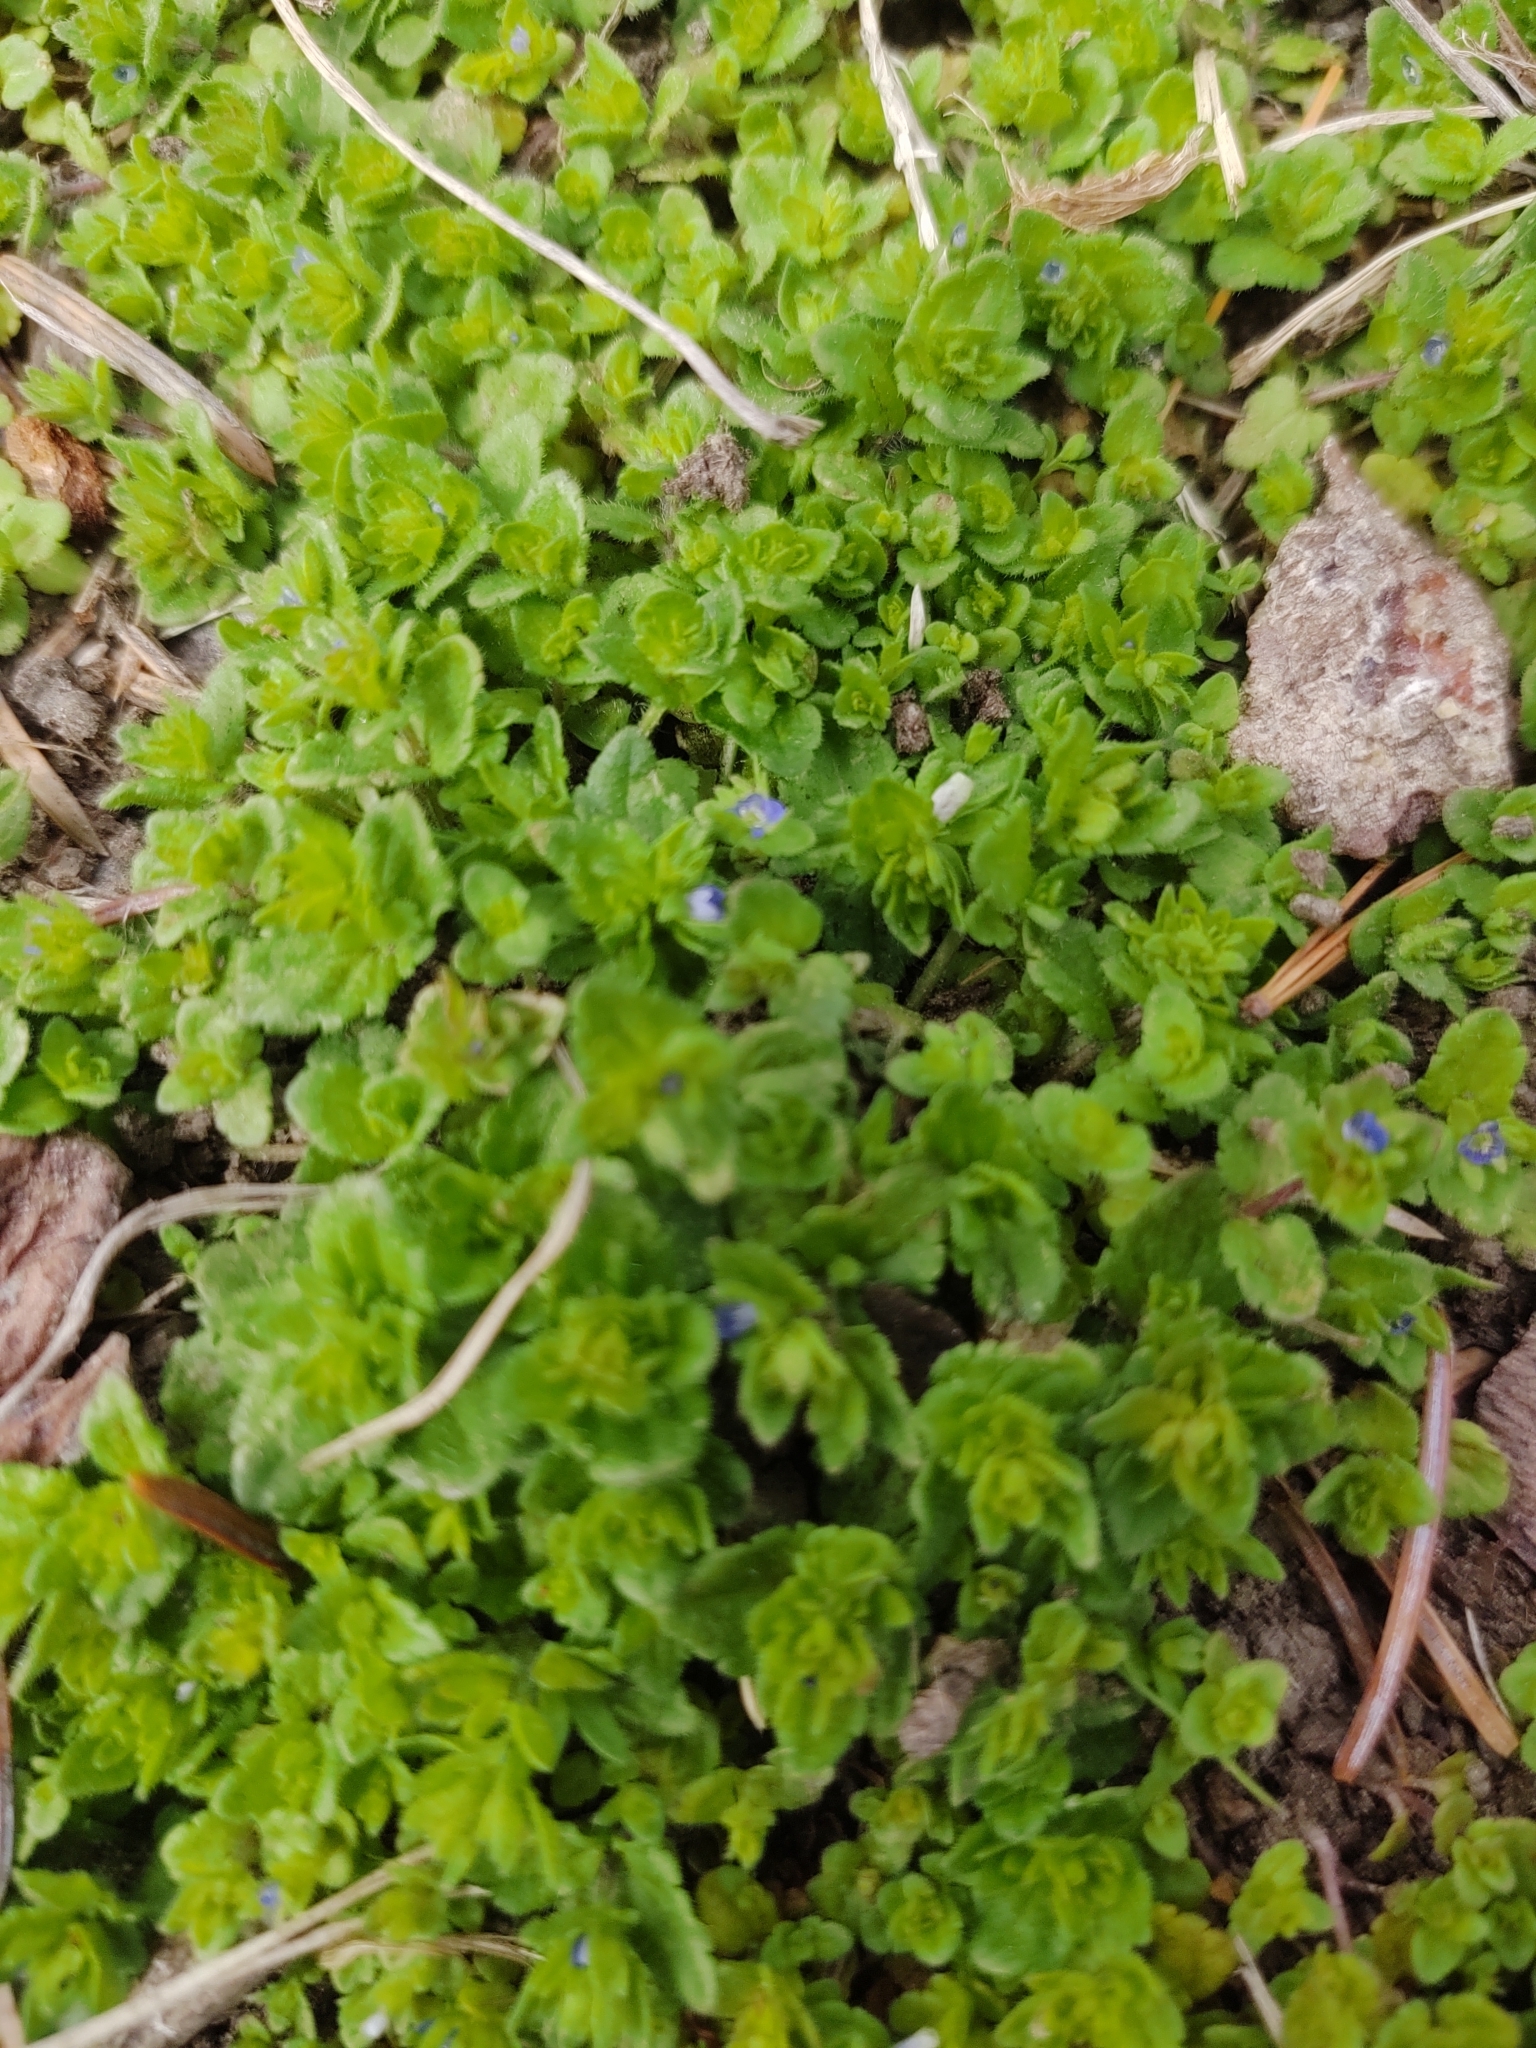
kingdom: Plantae
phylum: Tracheophyta
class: Magnoliopsida
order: Lamiales
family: Plantaginaceae
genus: Veronica
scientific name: Veronica hederifolia
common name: Ivy-leaved speedwell
